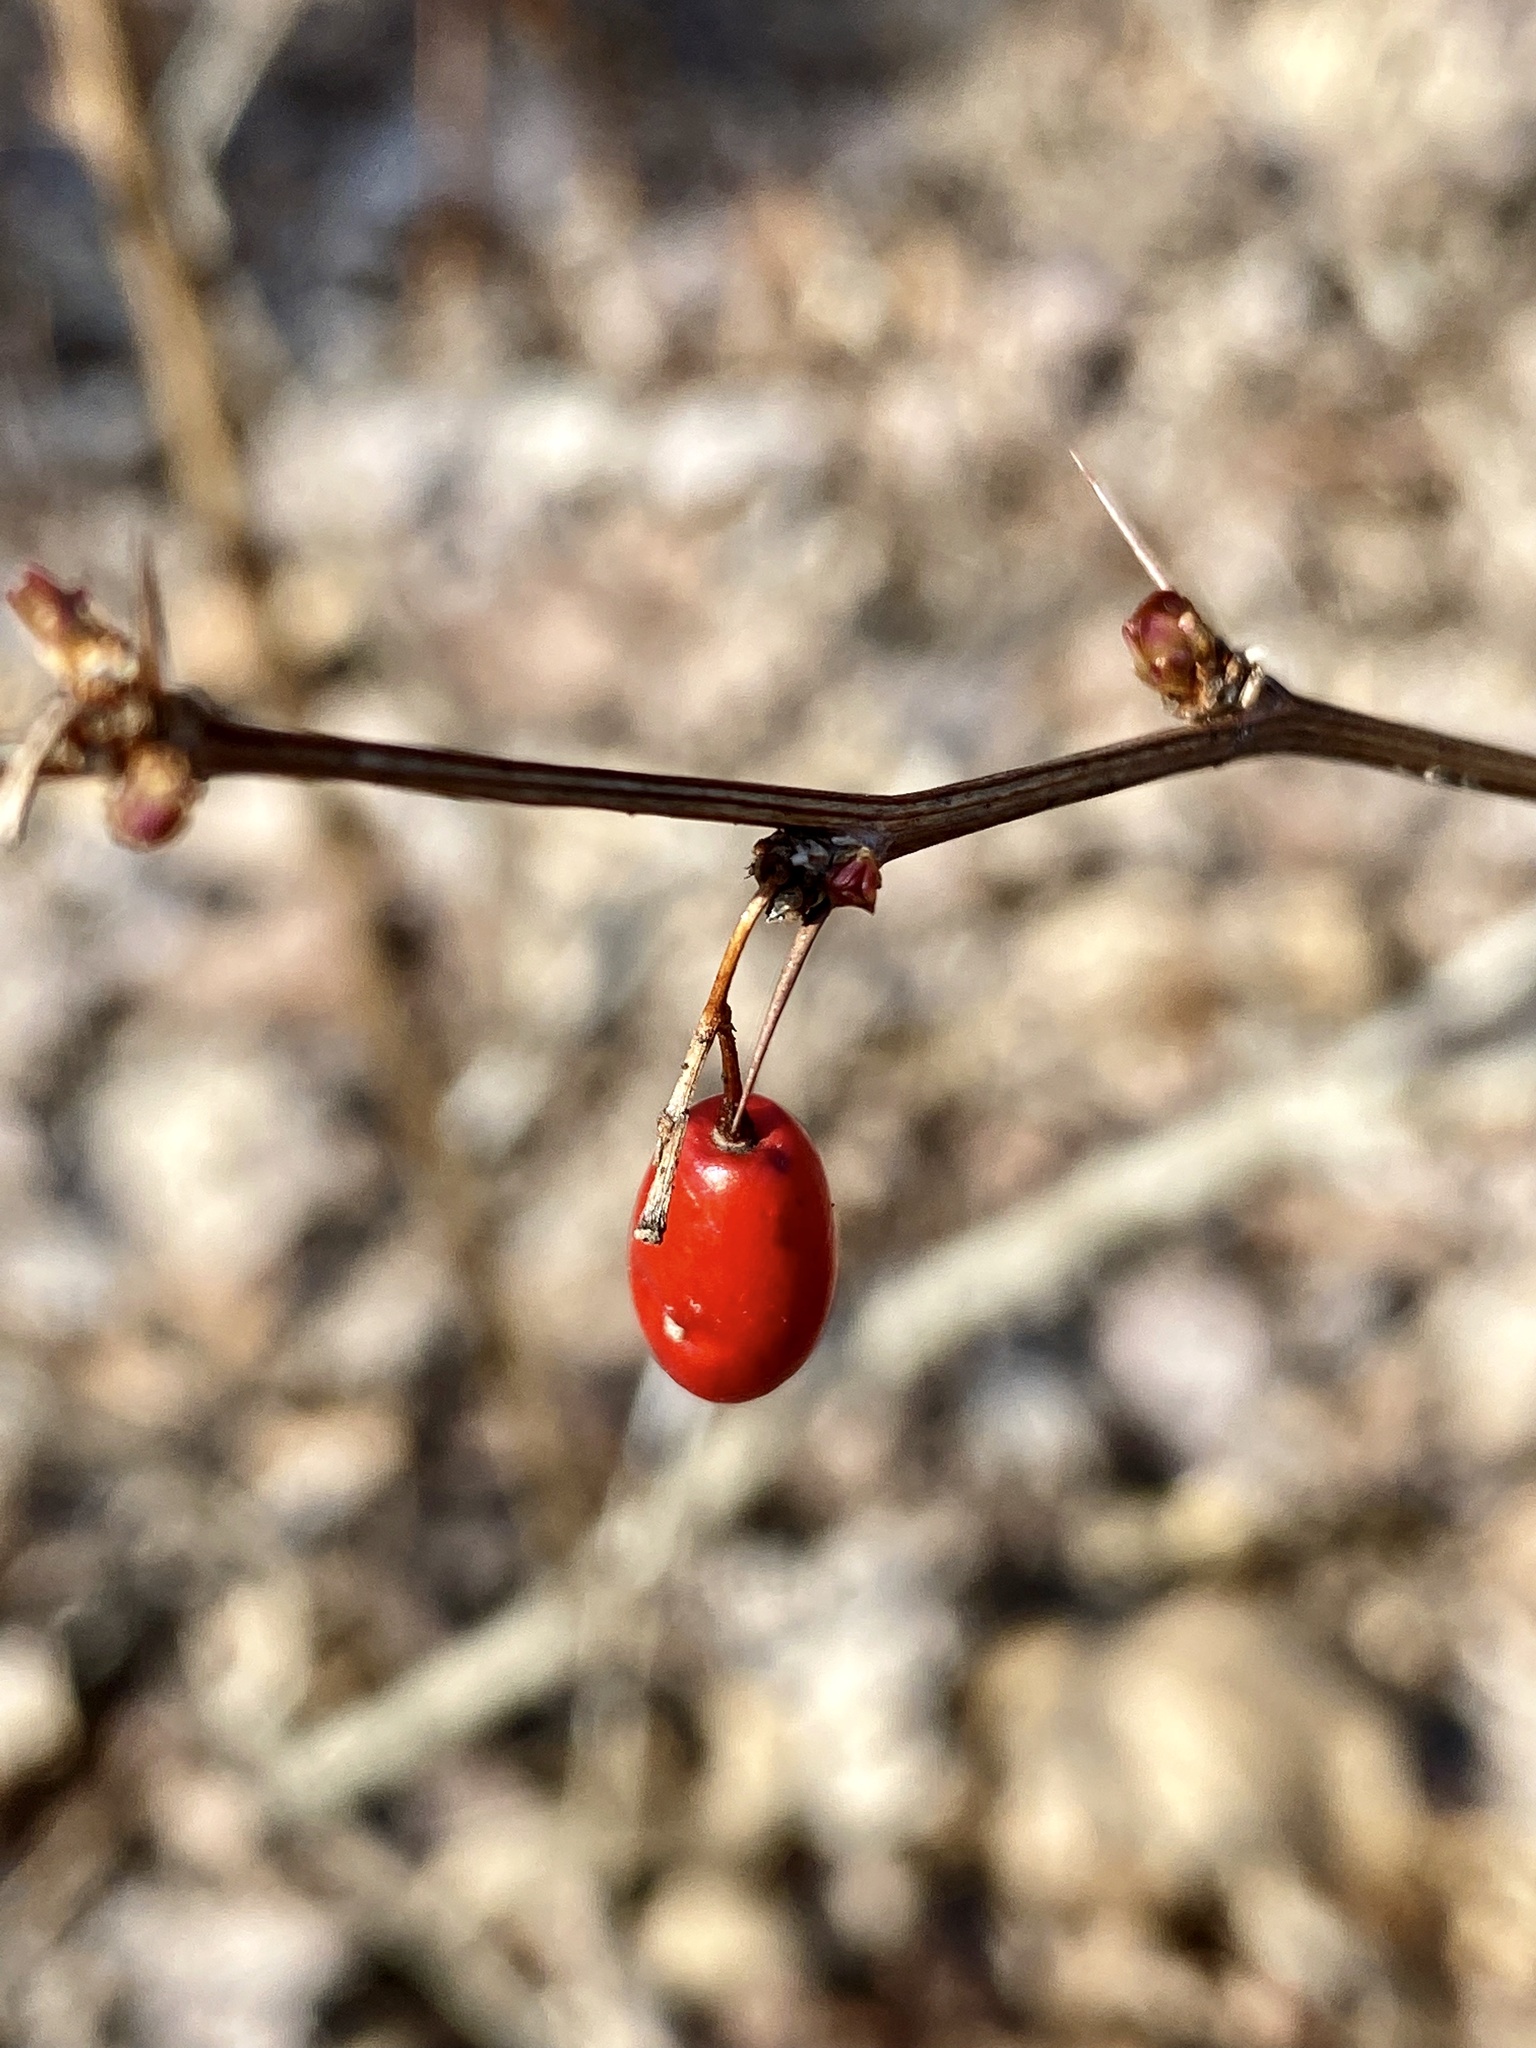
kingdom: Plantae
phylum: Tracheophyta
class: Magnoliopsida
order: Ranunculales
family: Berberidaceae
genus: Berberis
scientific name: Berberis thunbergii
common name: Japanese barberry
